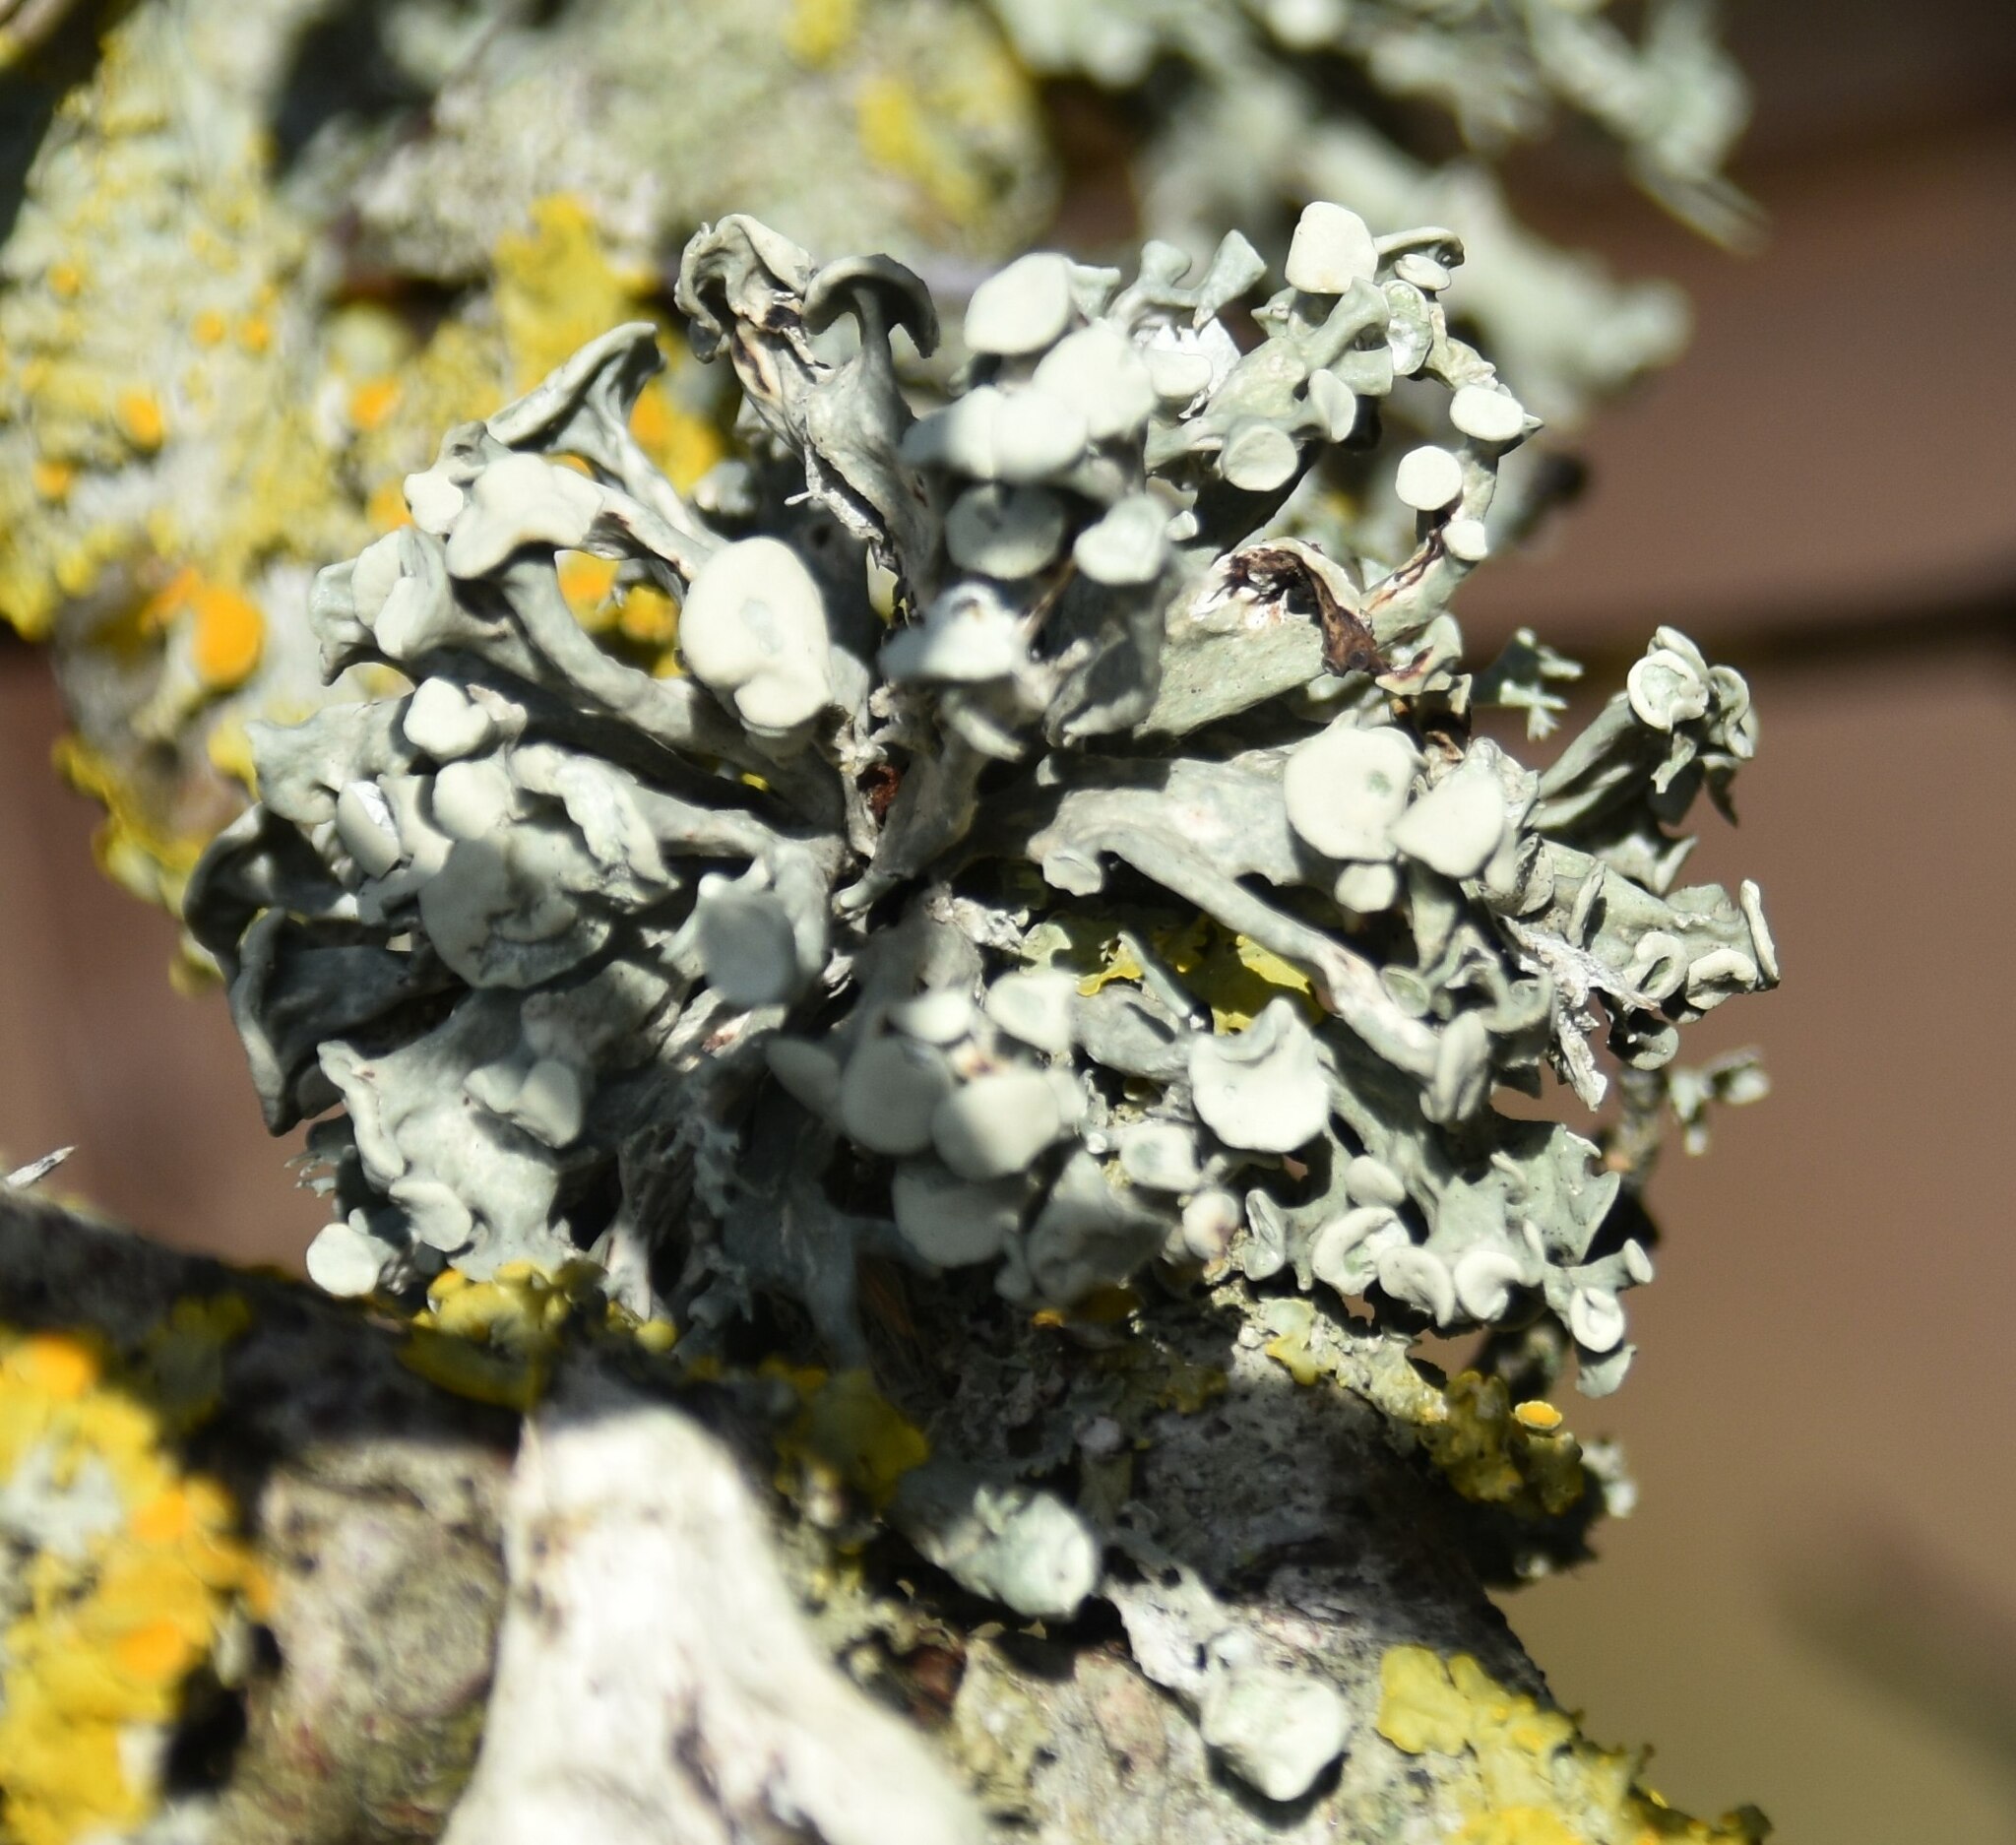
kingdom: Fungi
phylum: Ascomycota
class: Lecanoromycetes
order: Lecanorales
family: Ramalinaceae
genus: Ramalina
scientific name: Ramalina fastigiata
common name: Dotted ribbon lichen
